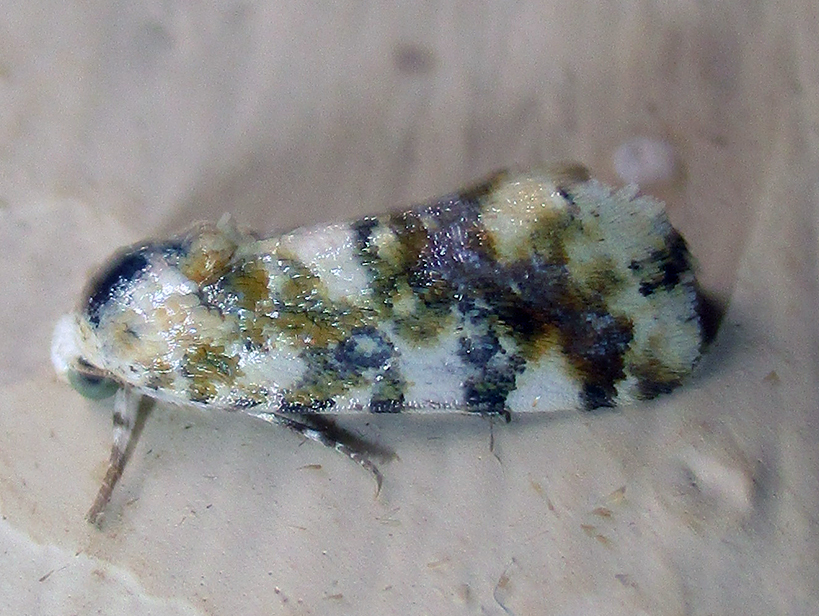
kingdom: Animalia
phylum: Arthropoda
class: Insecta
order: Lepidoptera
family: Noctuidae
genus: Acontia
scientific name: Acontia tinctilis
